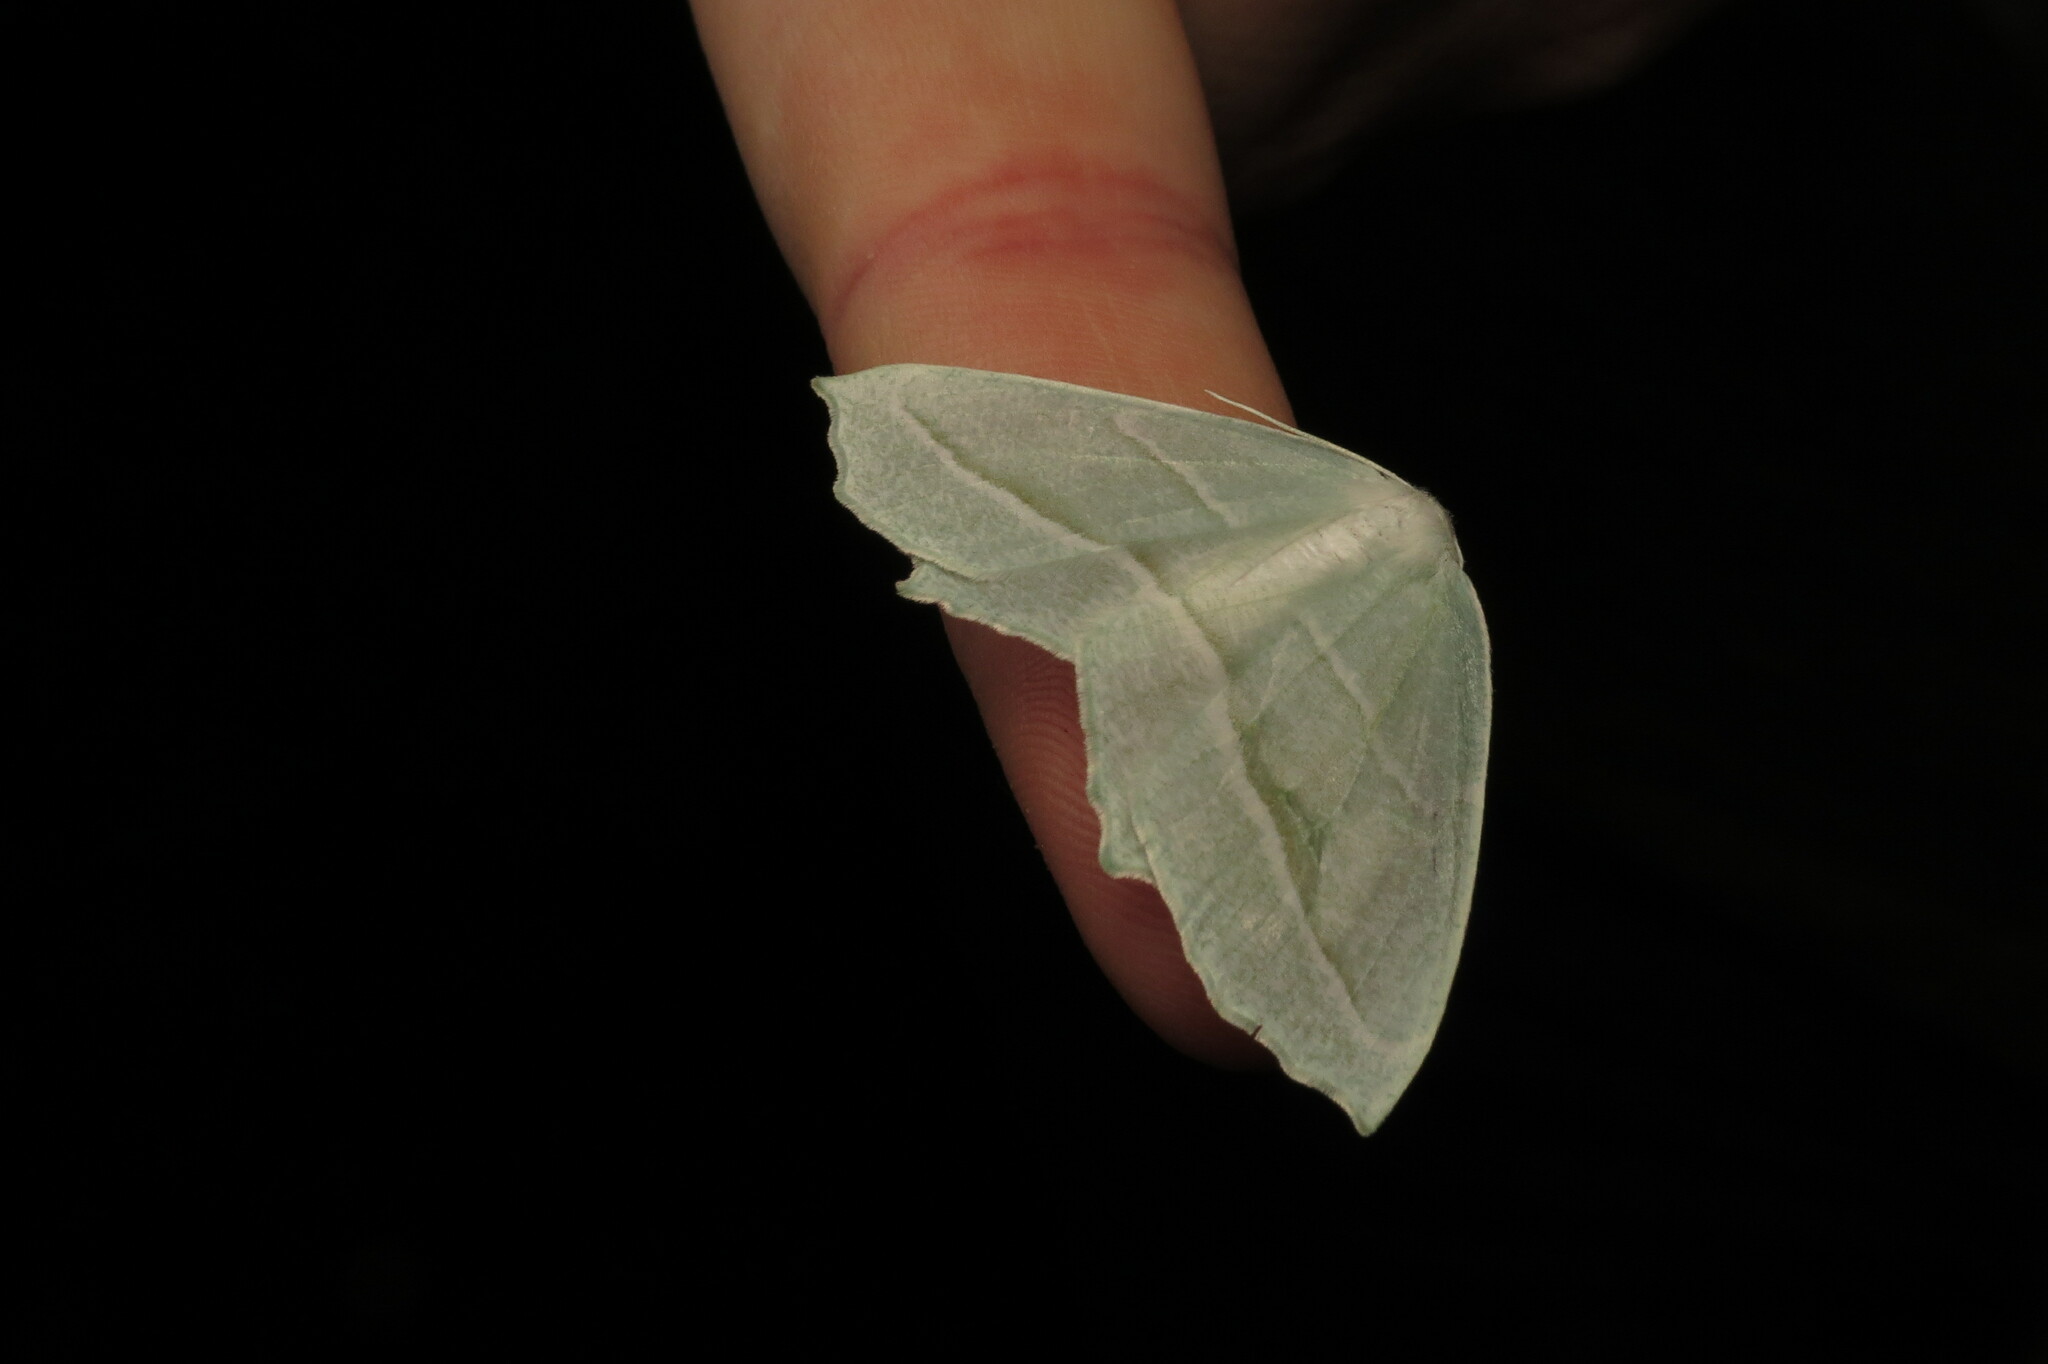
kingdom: Animalia
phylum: Arthropoda
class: Insecta
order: Lepidoptera
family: Geometridae
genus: Campaea
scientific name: Campaea perlata
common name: Fringed looper
